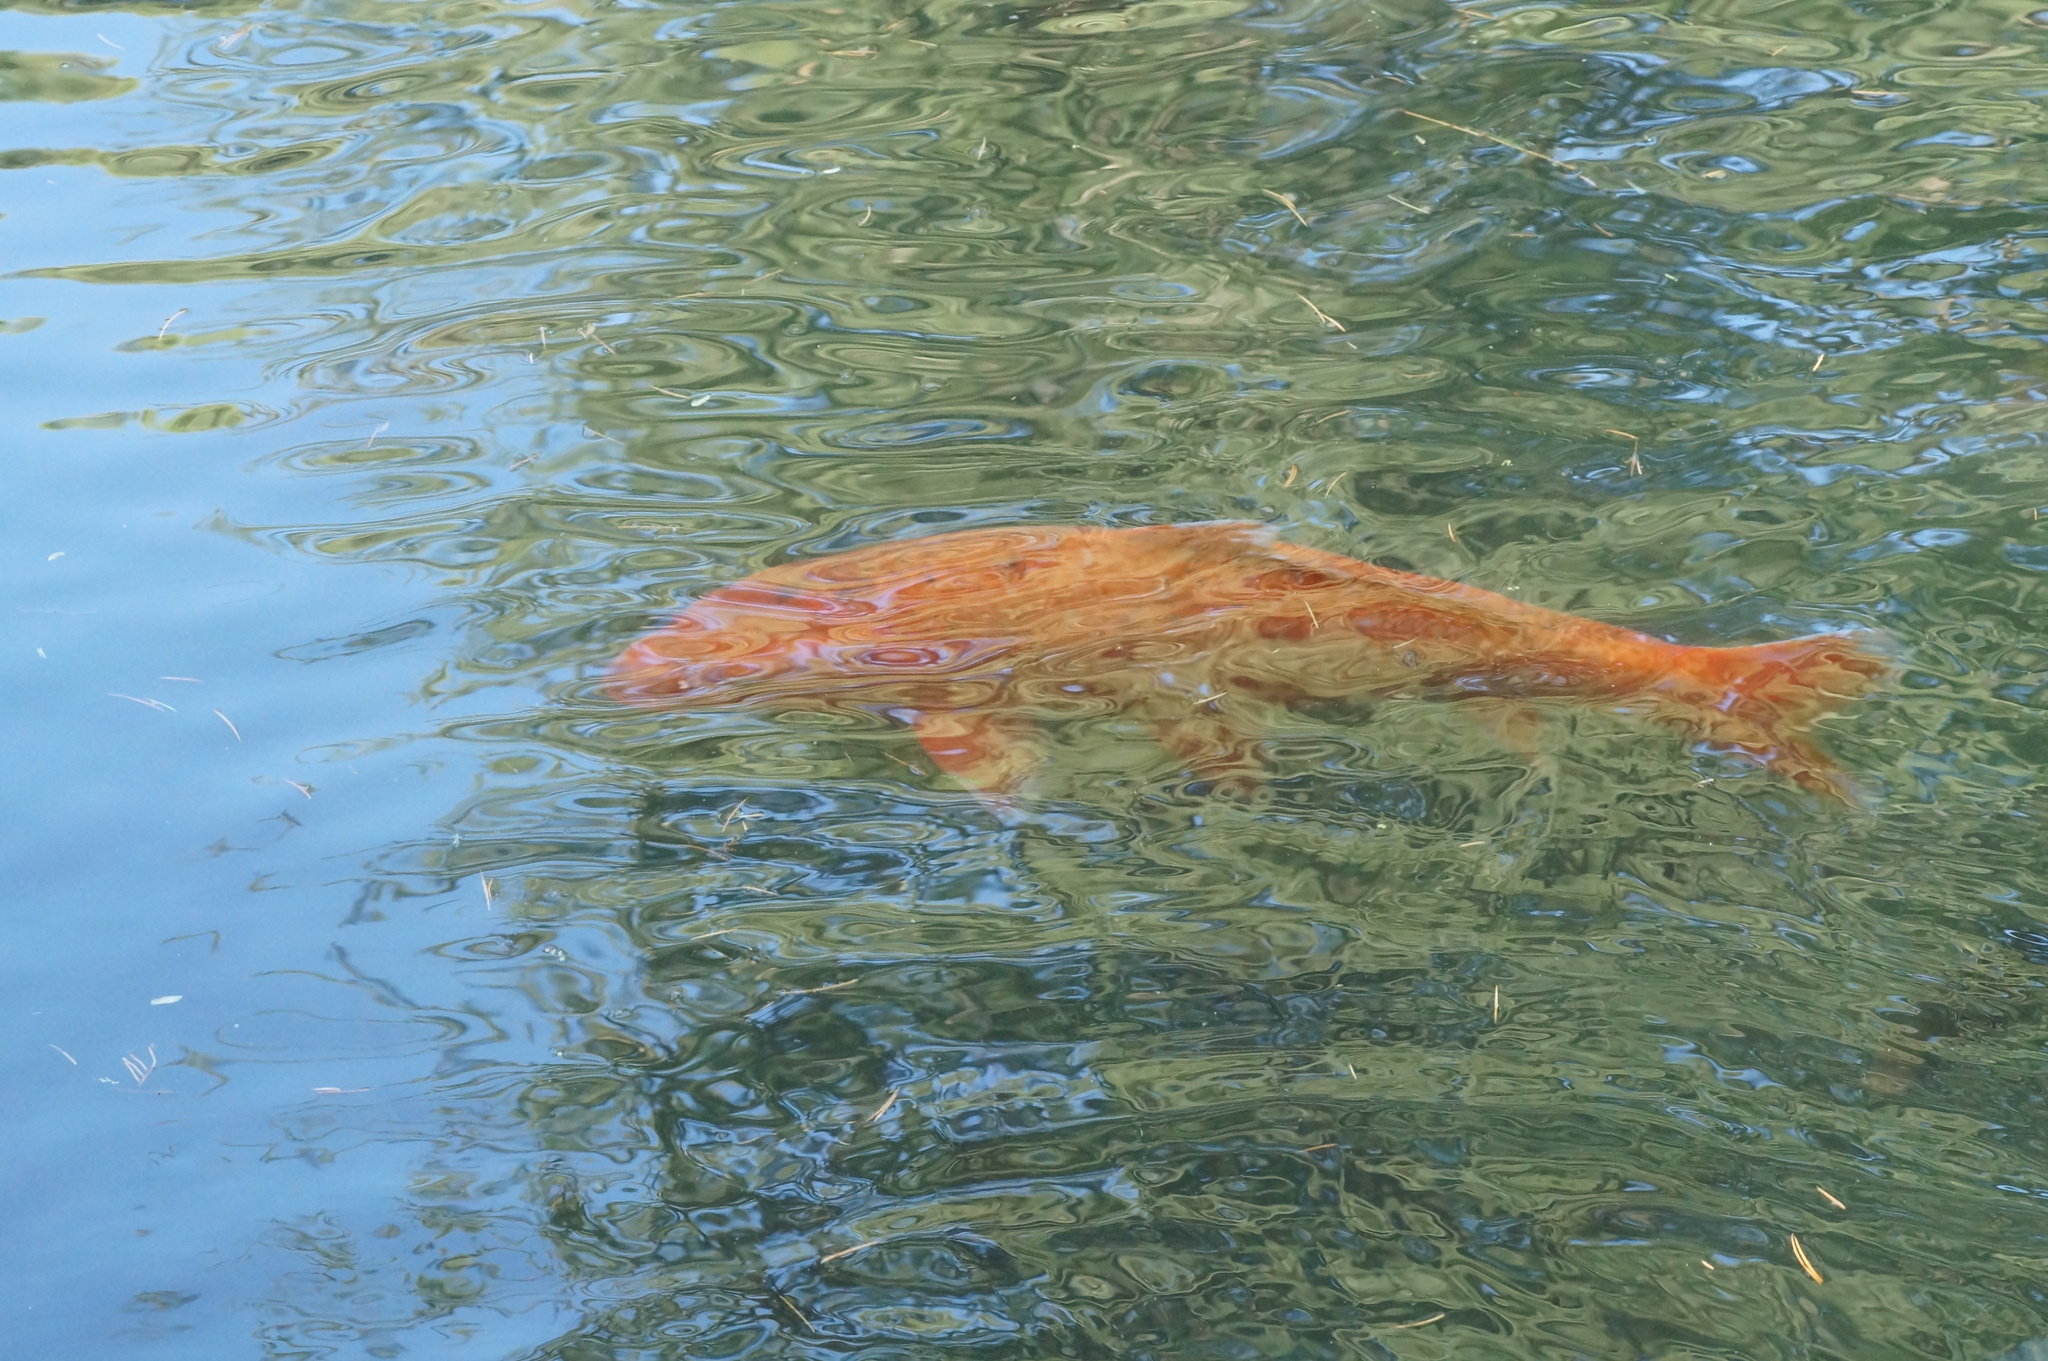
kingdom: Animalia
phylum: Chordata
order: Cypriniformes
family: Cyprinidae
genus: Cyprinus
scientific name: Cyprinus rubrofuscus
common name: Koi
